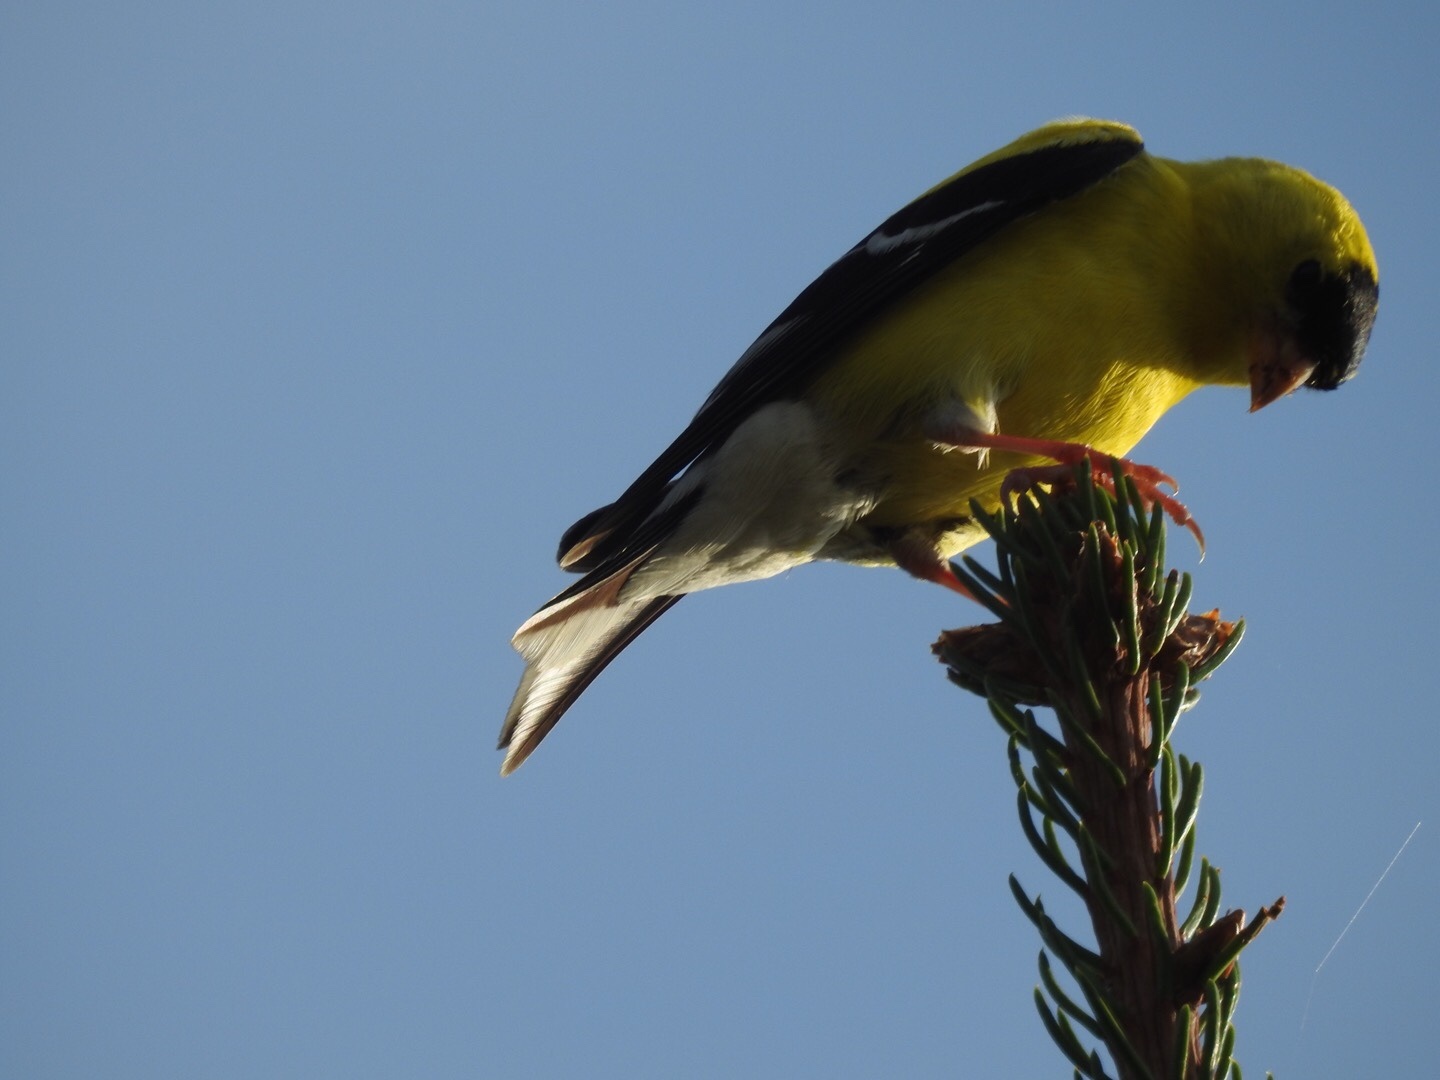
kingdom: Animalia
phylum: Chordata
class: Aves
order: Passeriformes
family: Fringillidae
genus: Spinus
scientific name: Spinus tristis
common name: American goldfinch
